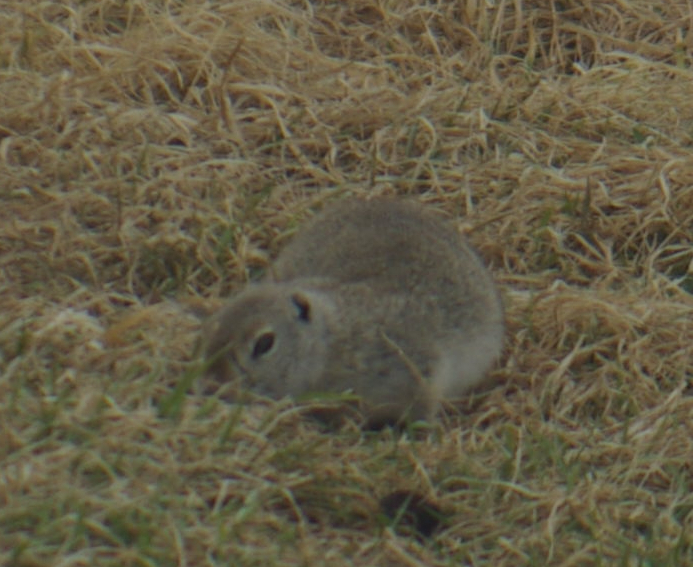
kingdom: Animalia
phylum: Chordata
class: Mammalia
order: Rodentia
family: Sciuridae
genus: Urocitellus
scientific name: Urocitellus richardsonii
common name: Richardson's ground squirrel
